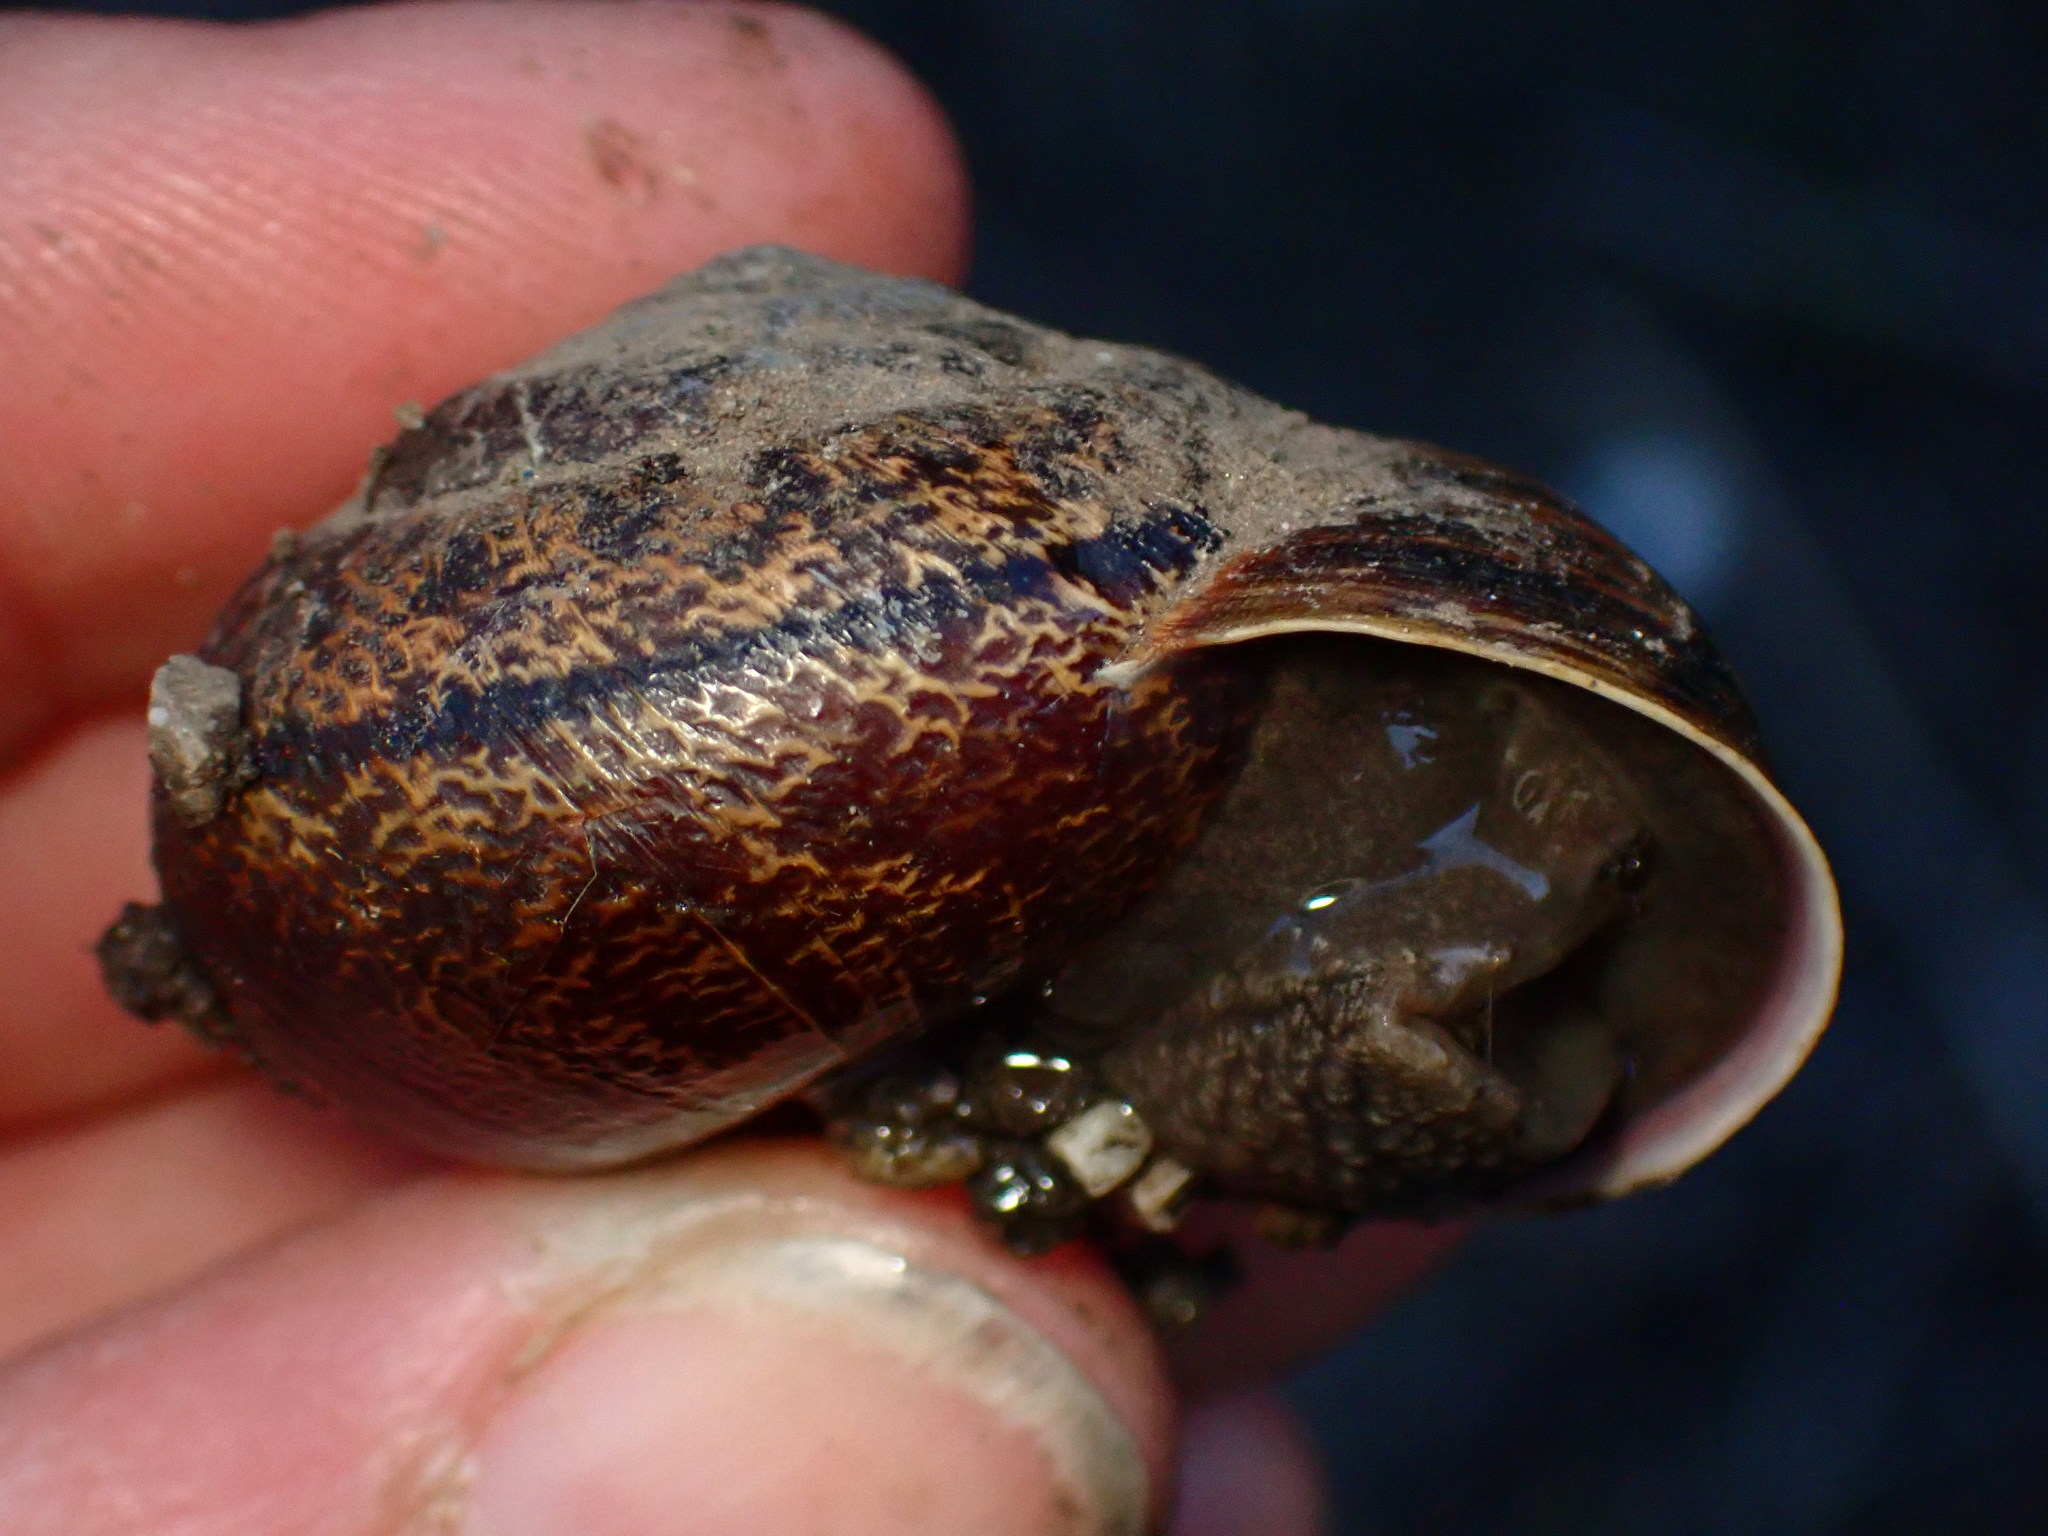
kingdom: Animalia
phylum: Mollusca
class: Gastropoda
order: Stylommatophora
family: Xanthonychidae
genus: Helminthoglypta
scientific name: Helminthoglypta arrosa
